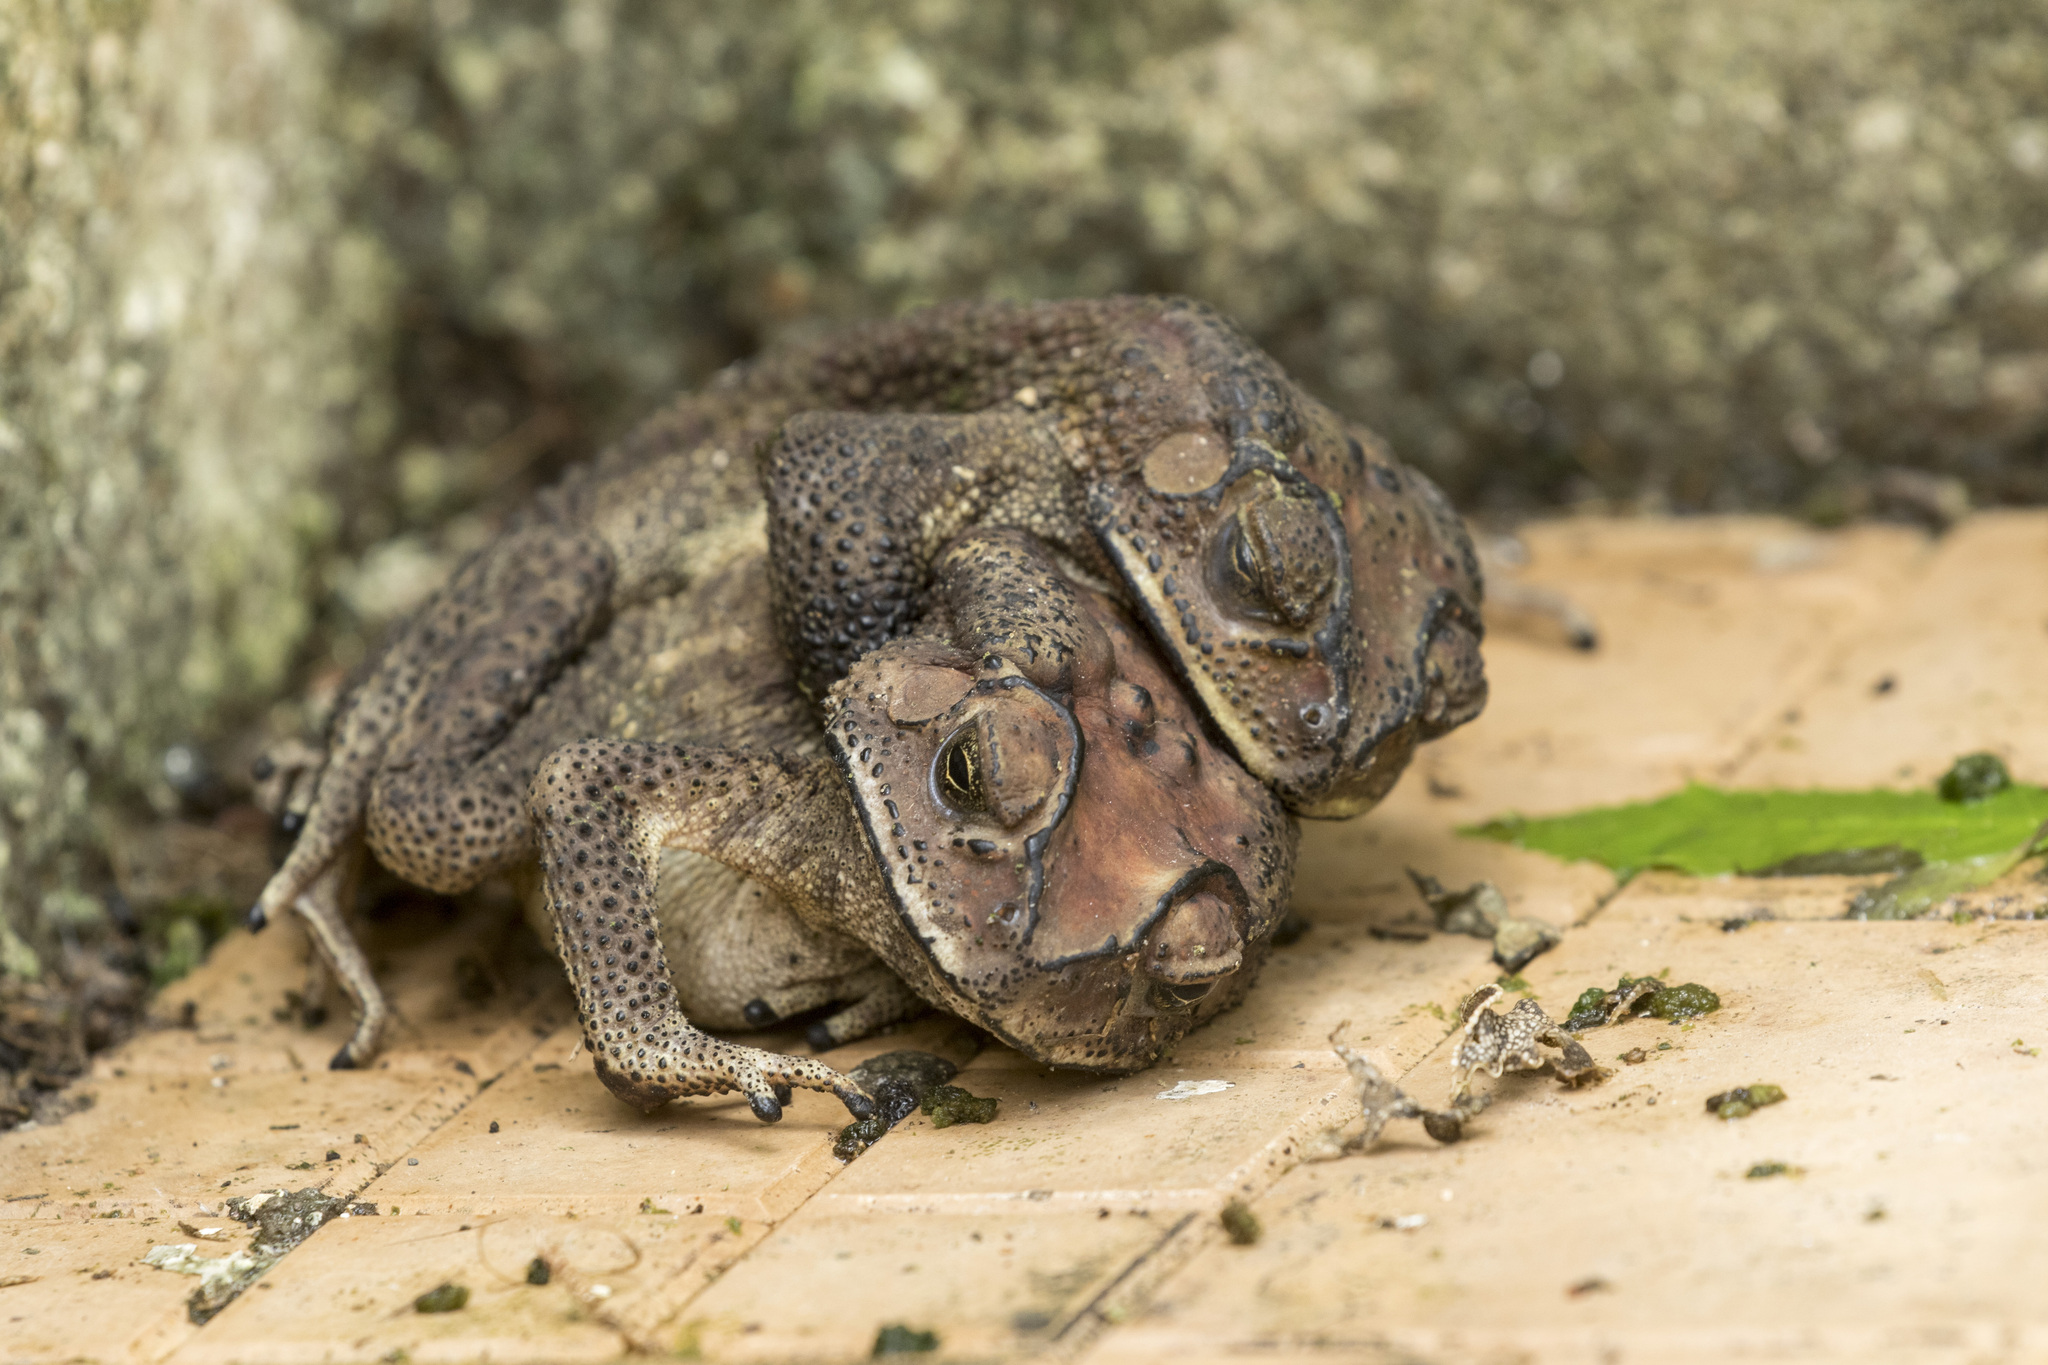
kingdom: Animalia
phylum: Chordata
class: Amphibia
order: Anura
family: Bufonidae
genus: Duttaphrynus
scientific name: Duttaphrynus melanostictus
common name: Common sunda toad
